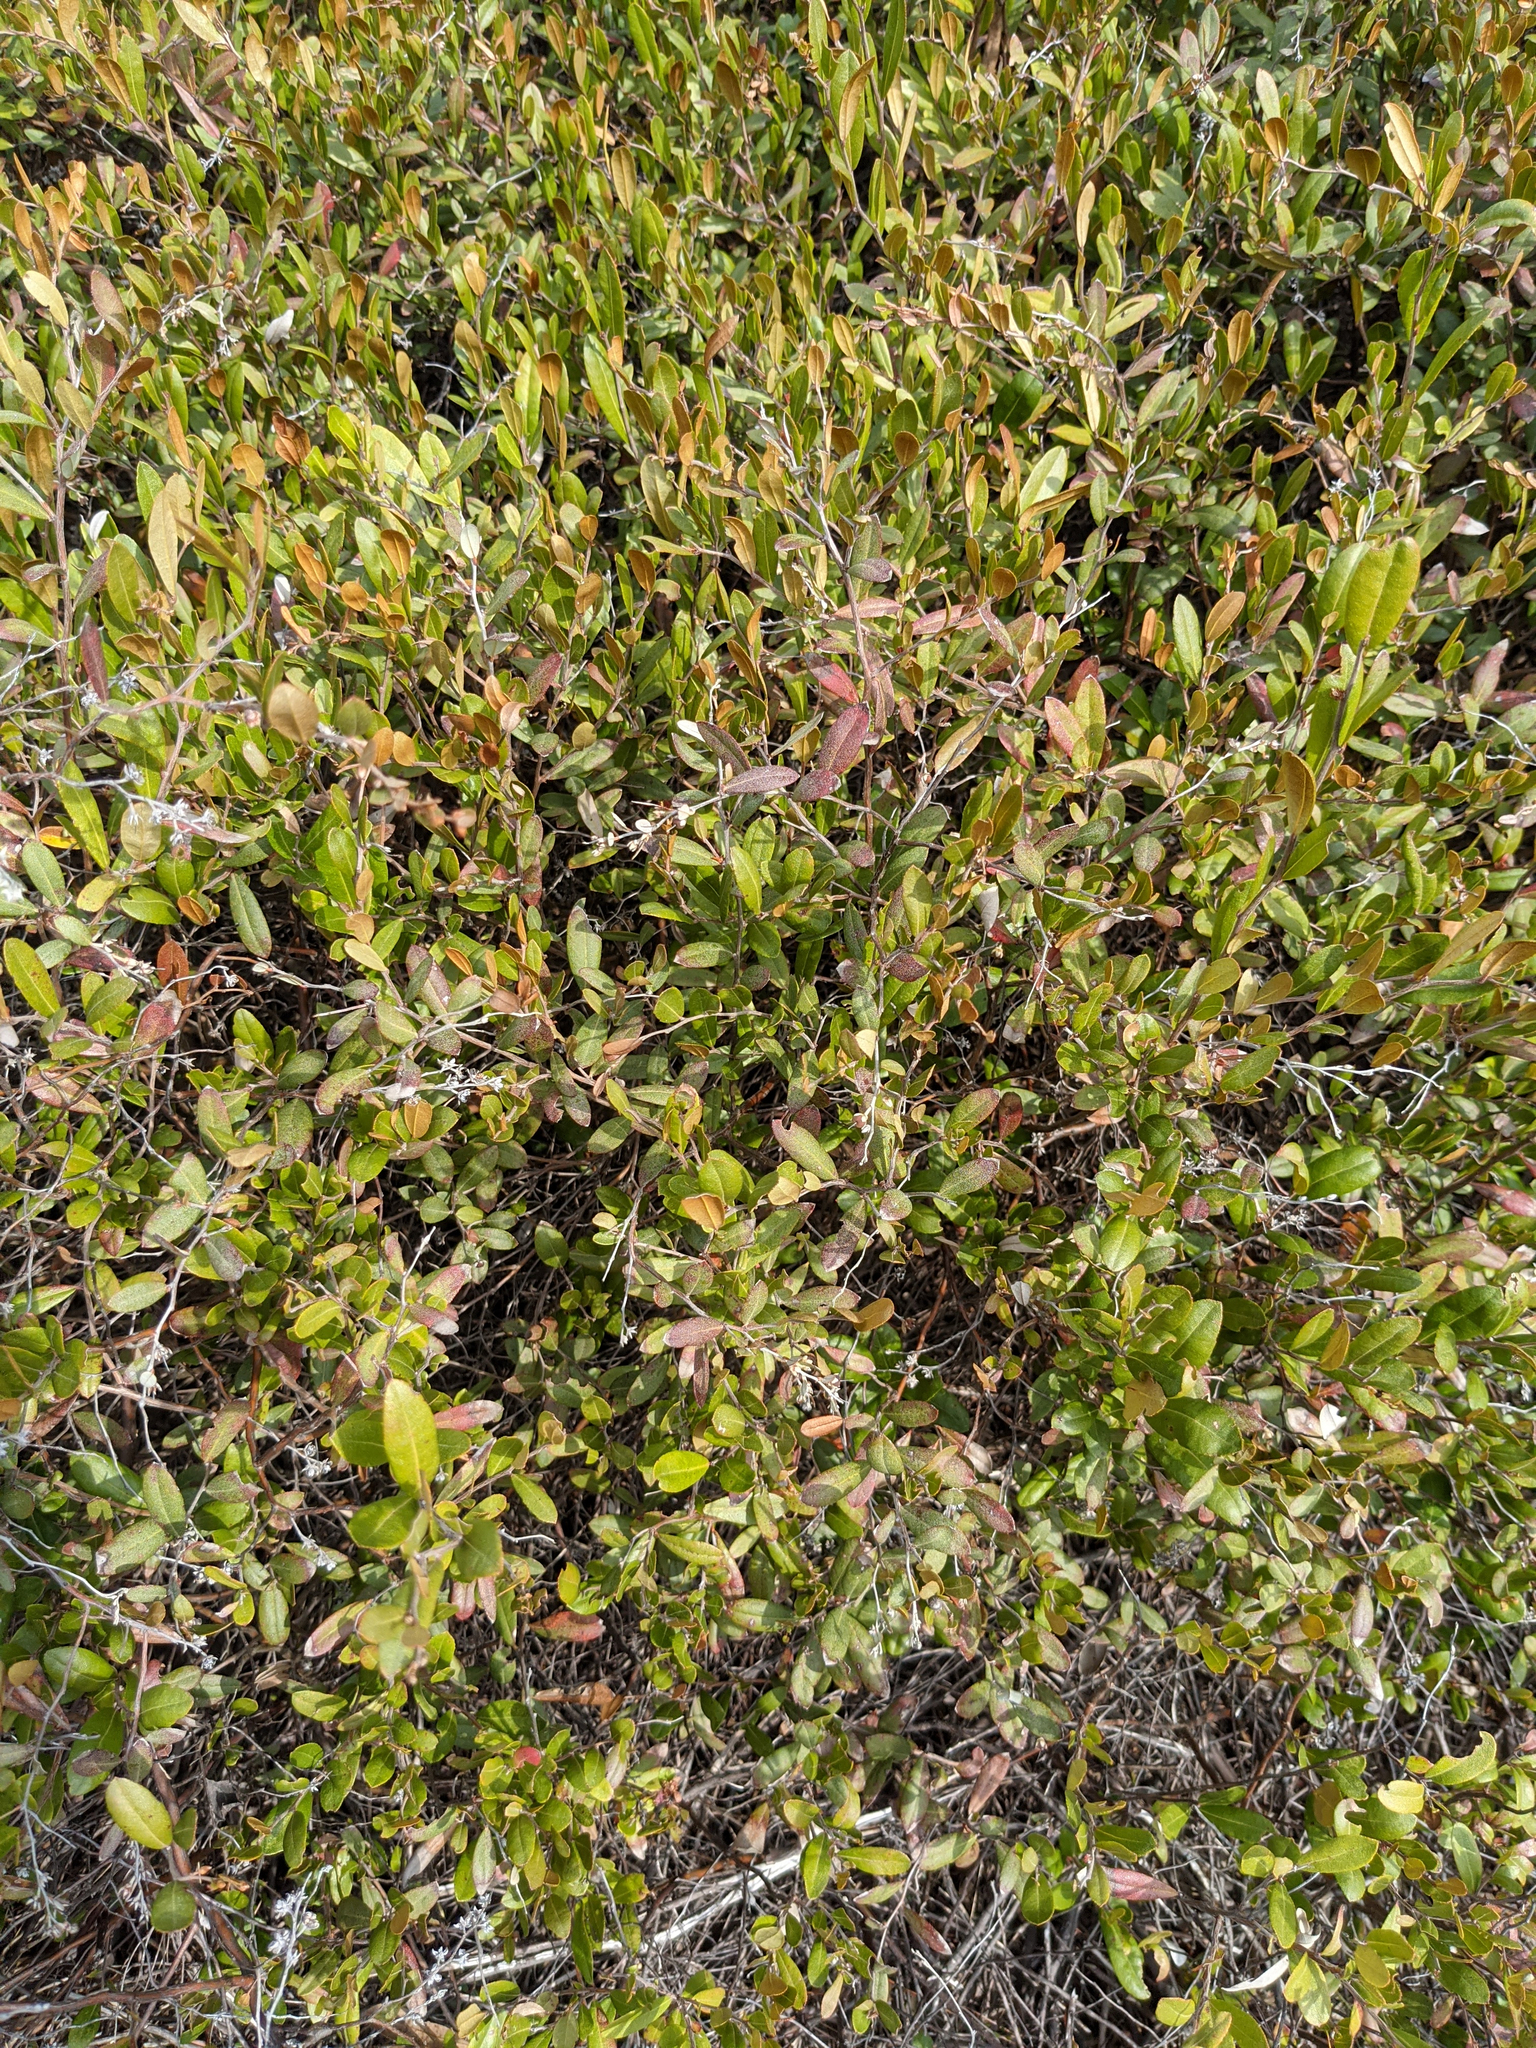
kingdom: Plantae
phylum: Tracheophyta
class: Magnoliopsida
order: Ericales
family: Ericaceae
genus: Chamaedaphne
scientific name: Chamaedaphne calyculata
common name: Leatherleaf
